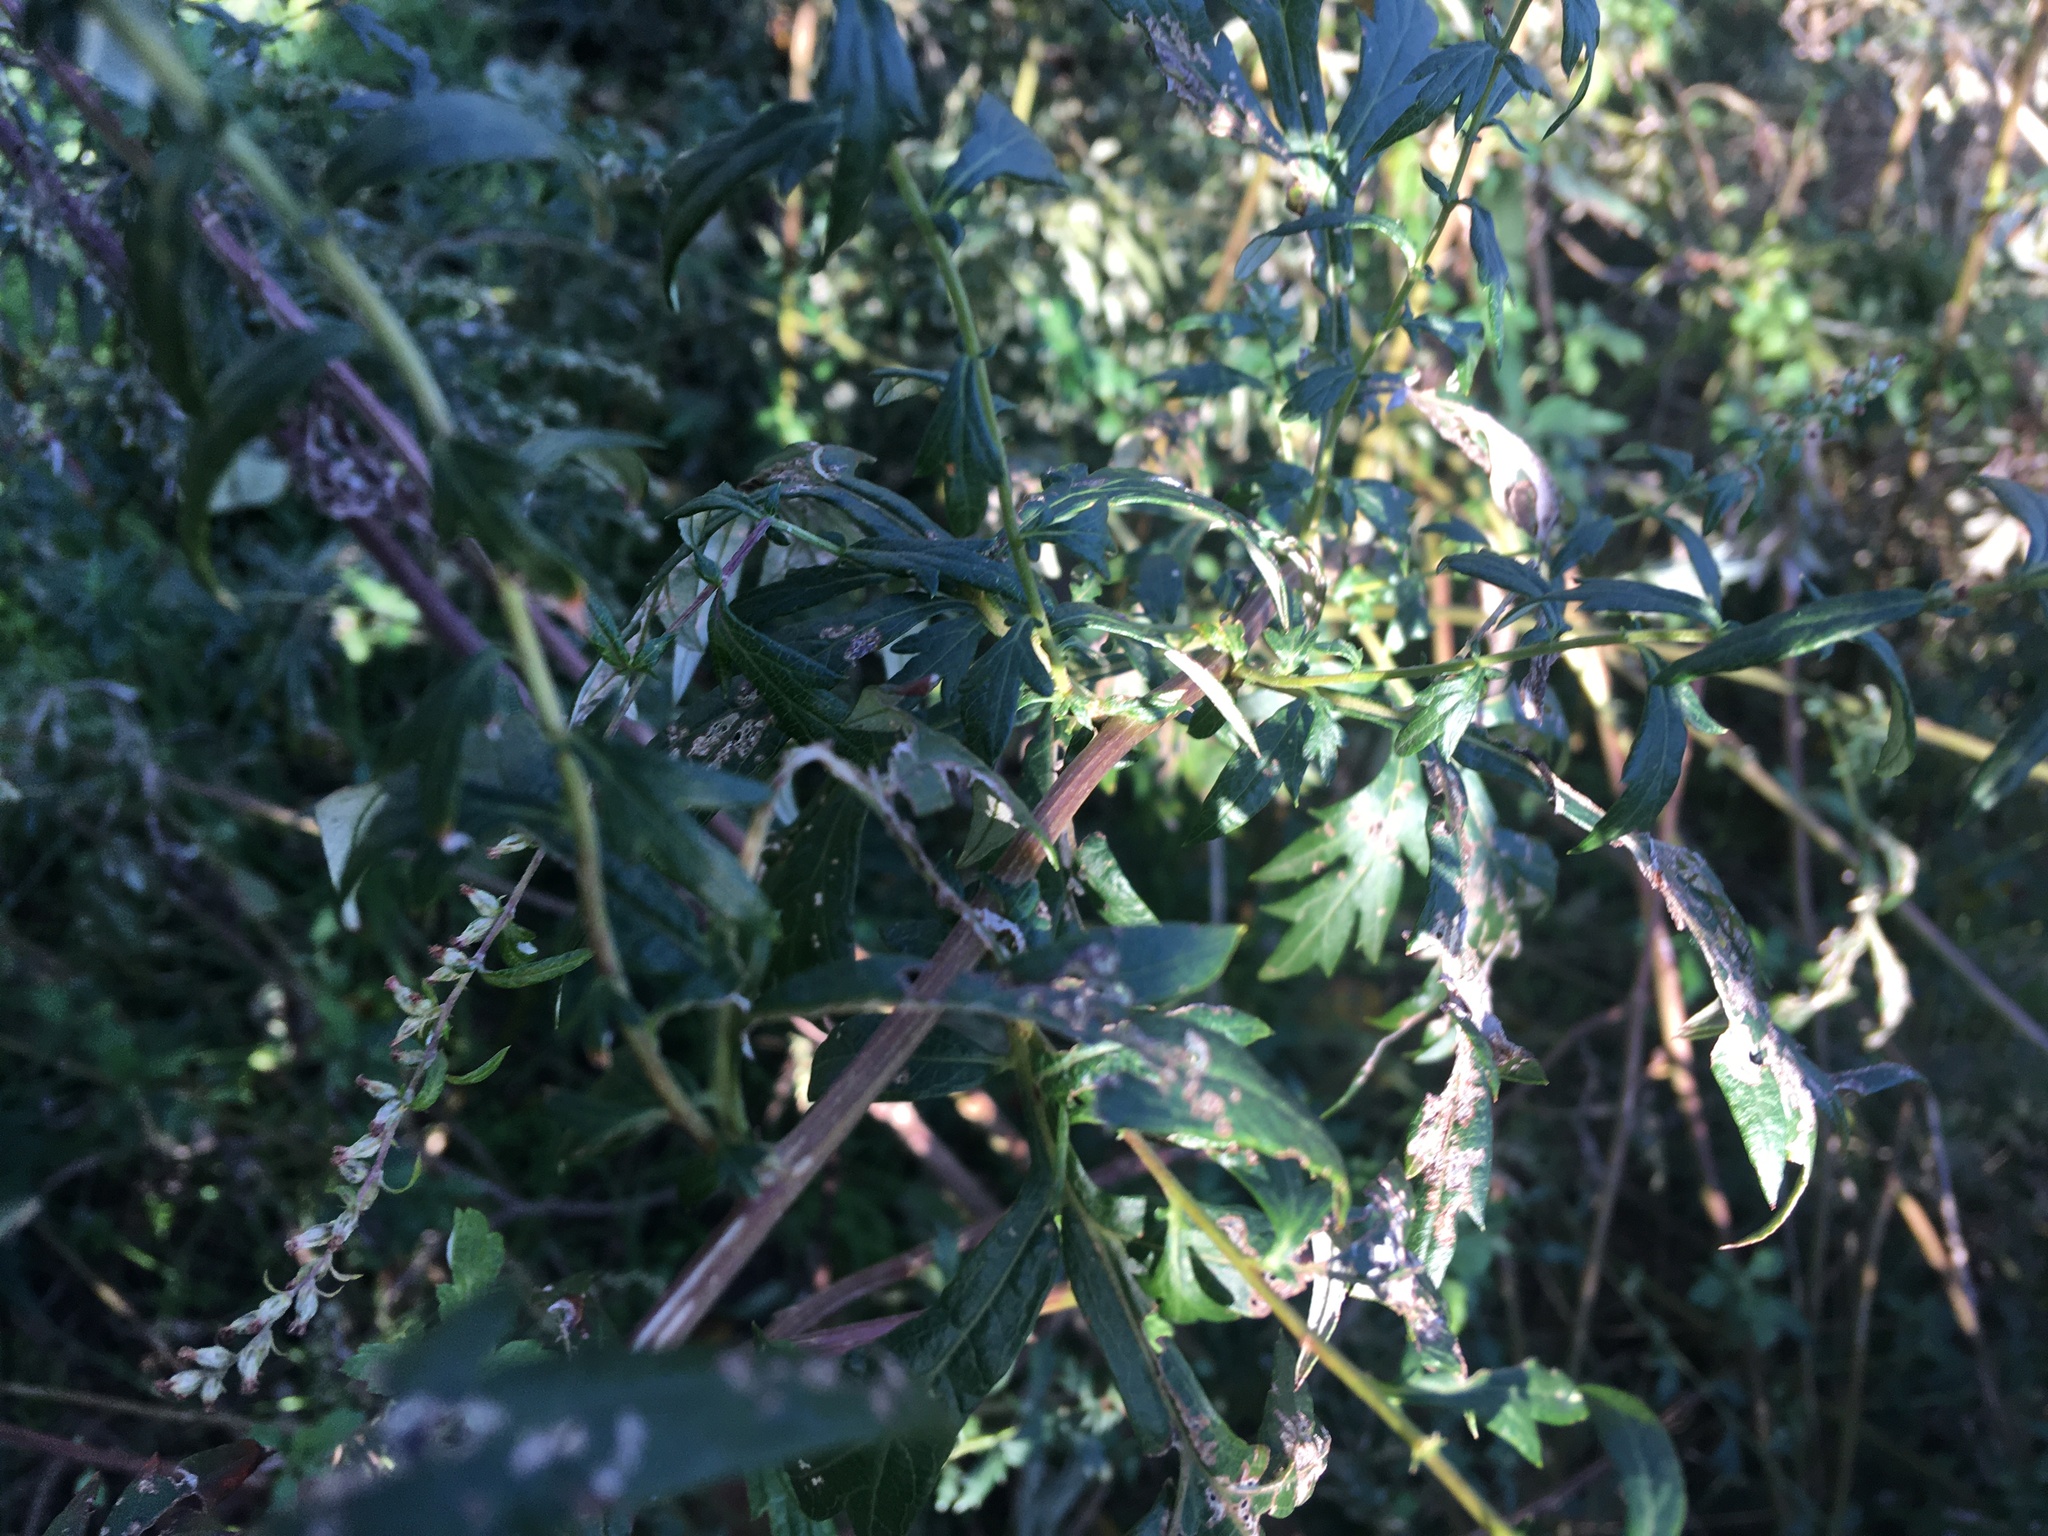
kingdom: Plantae
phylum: Tracheophyta
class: Magnoliopsida
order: Asterales
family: Asteraceae
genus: Artemisia
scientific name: Artemisia vulgaris
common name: Mugwort
